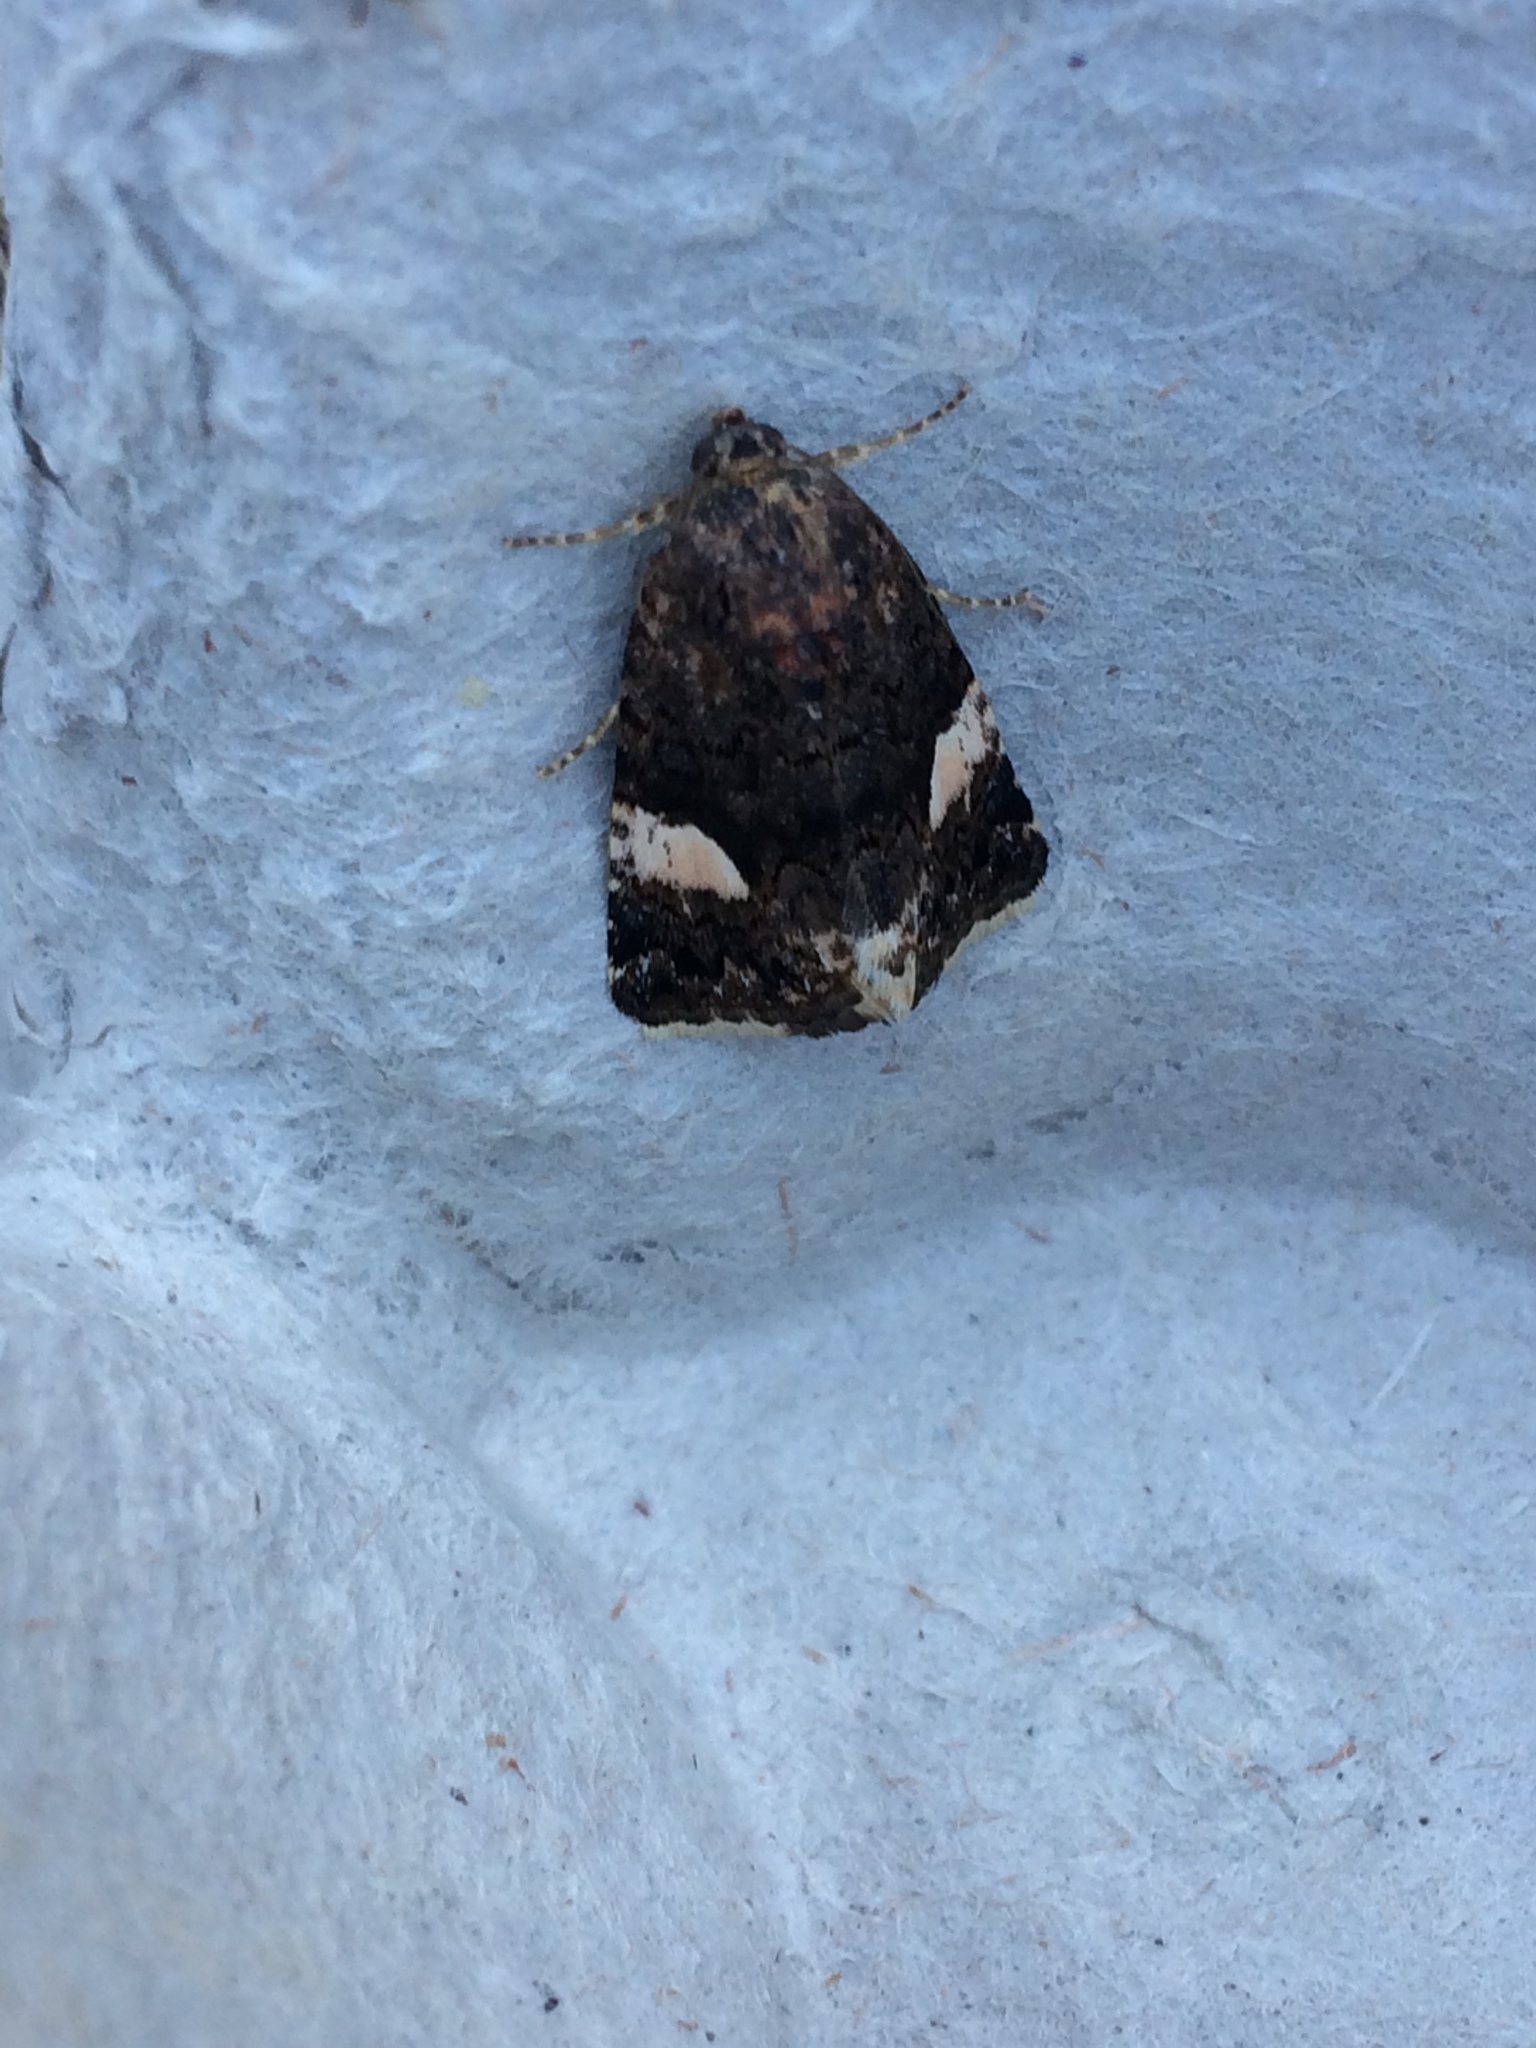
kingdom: Animalia
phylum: Arthropoda
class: Insecta
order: Lepidoptera
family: Erebidae
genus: Tyta
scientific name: Tyta luctuosa
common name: Four-spotted
